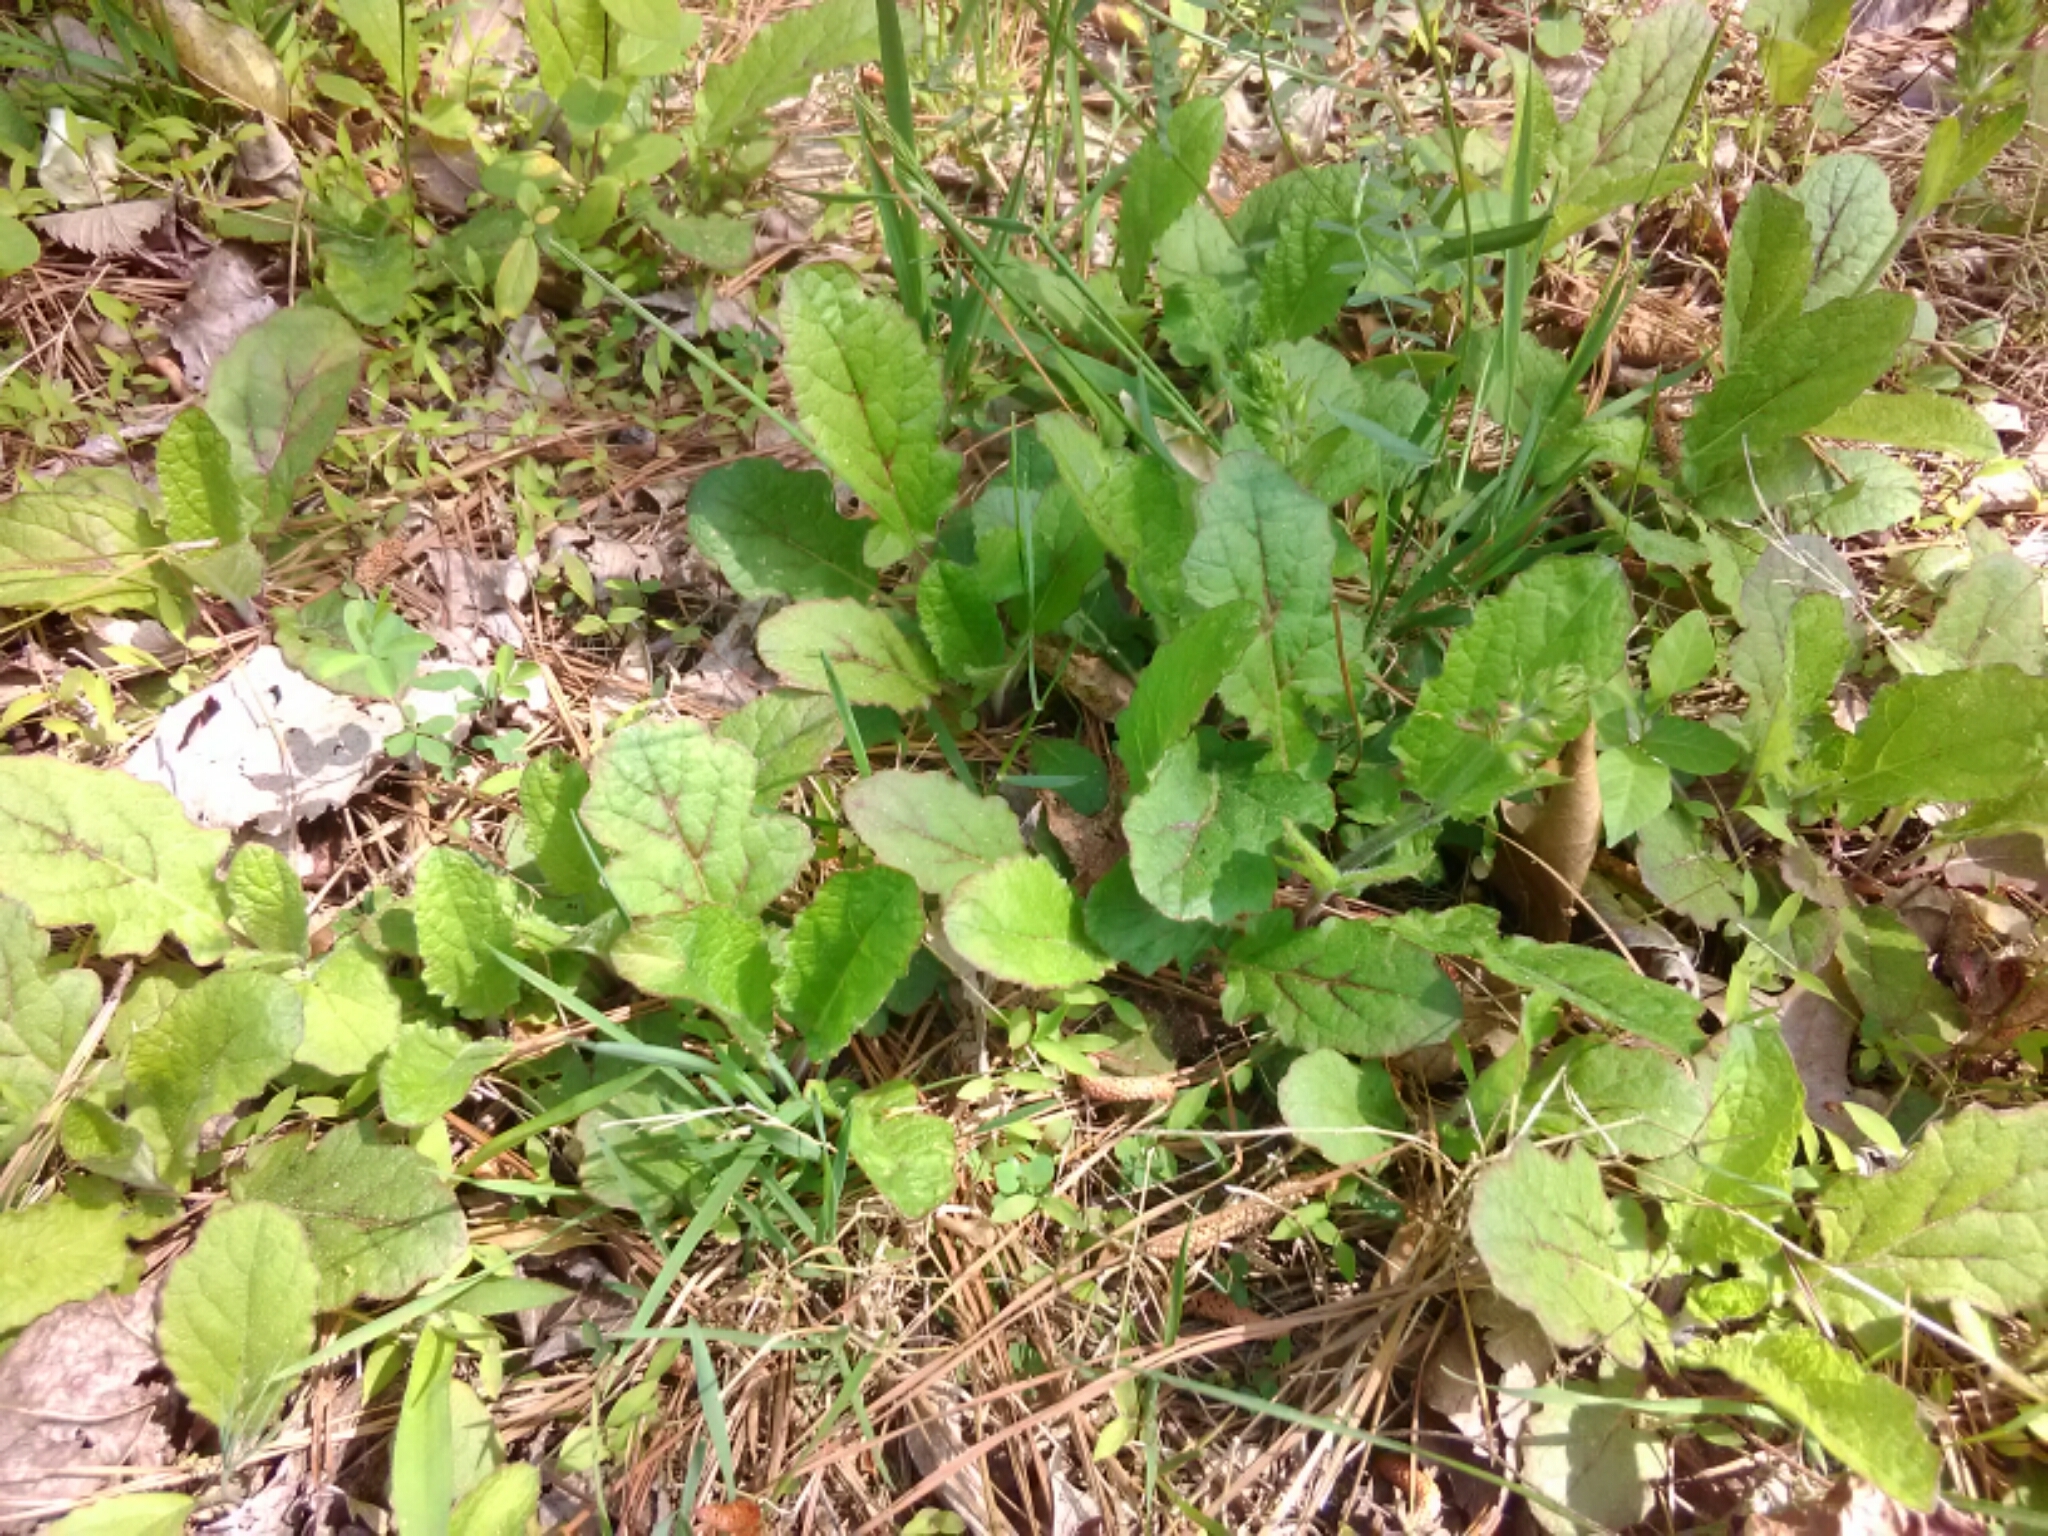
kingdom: Plantae
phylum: Tracheophyta
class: Magnoliopsida
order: Lamiales
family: Lamiaceae
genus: Salvia
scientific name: Salvia lyrata
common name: Cancerweed
